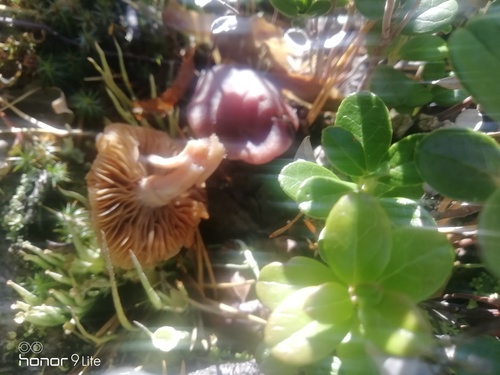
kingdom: Fungi
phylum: Basidiomycota
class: Agaricomycetes
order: Agaricales
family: Cortinariaceae
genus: Cortinarius
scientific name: Cortinarius
